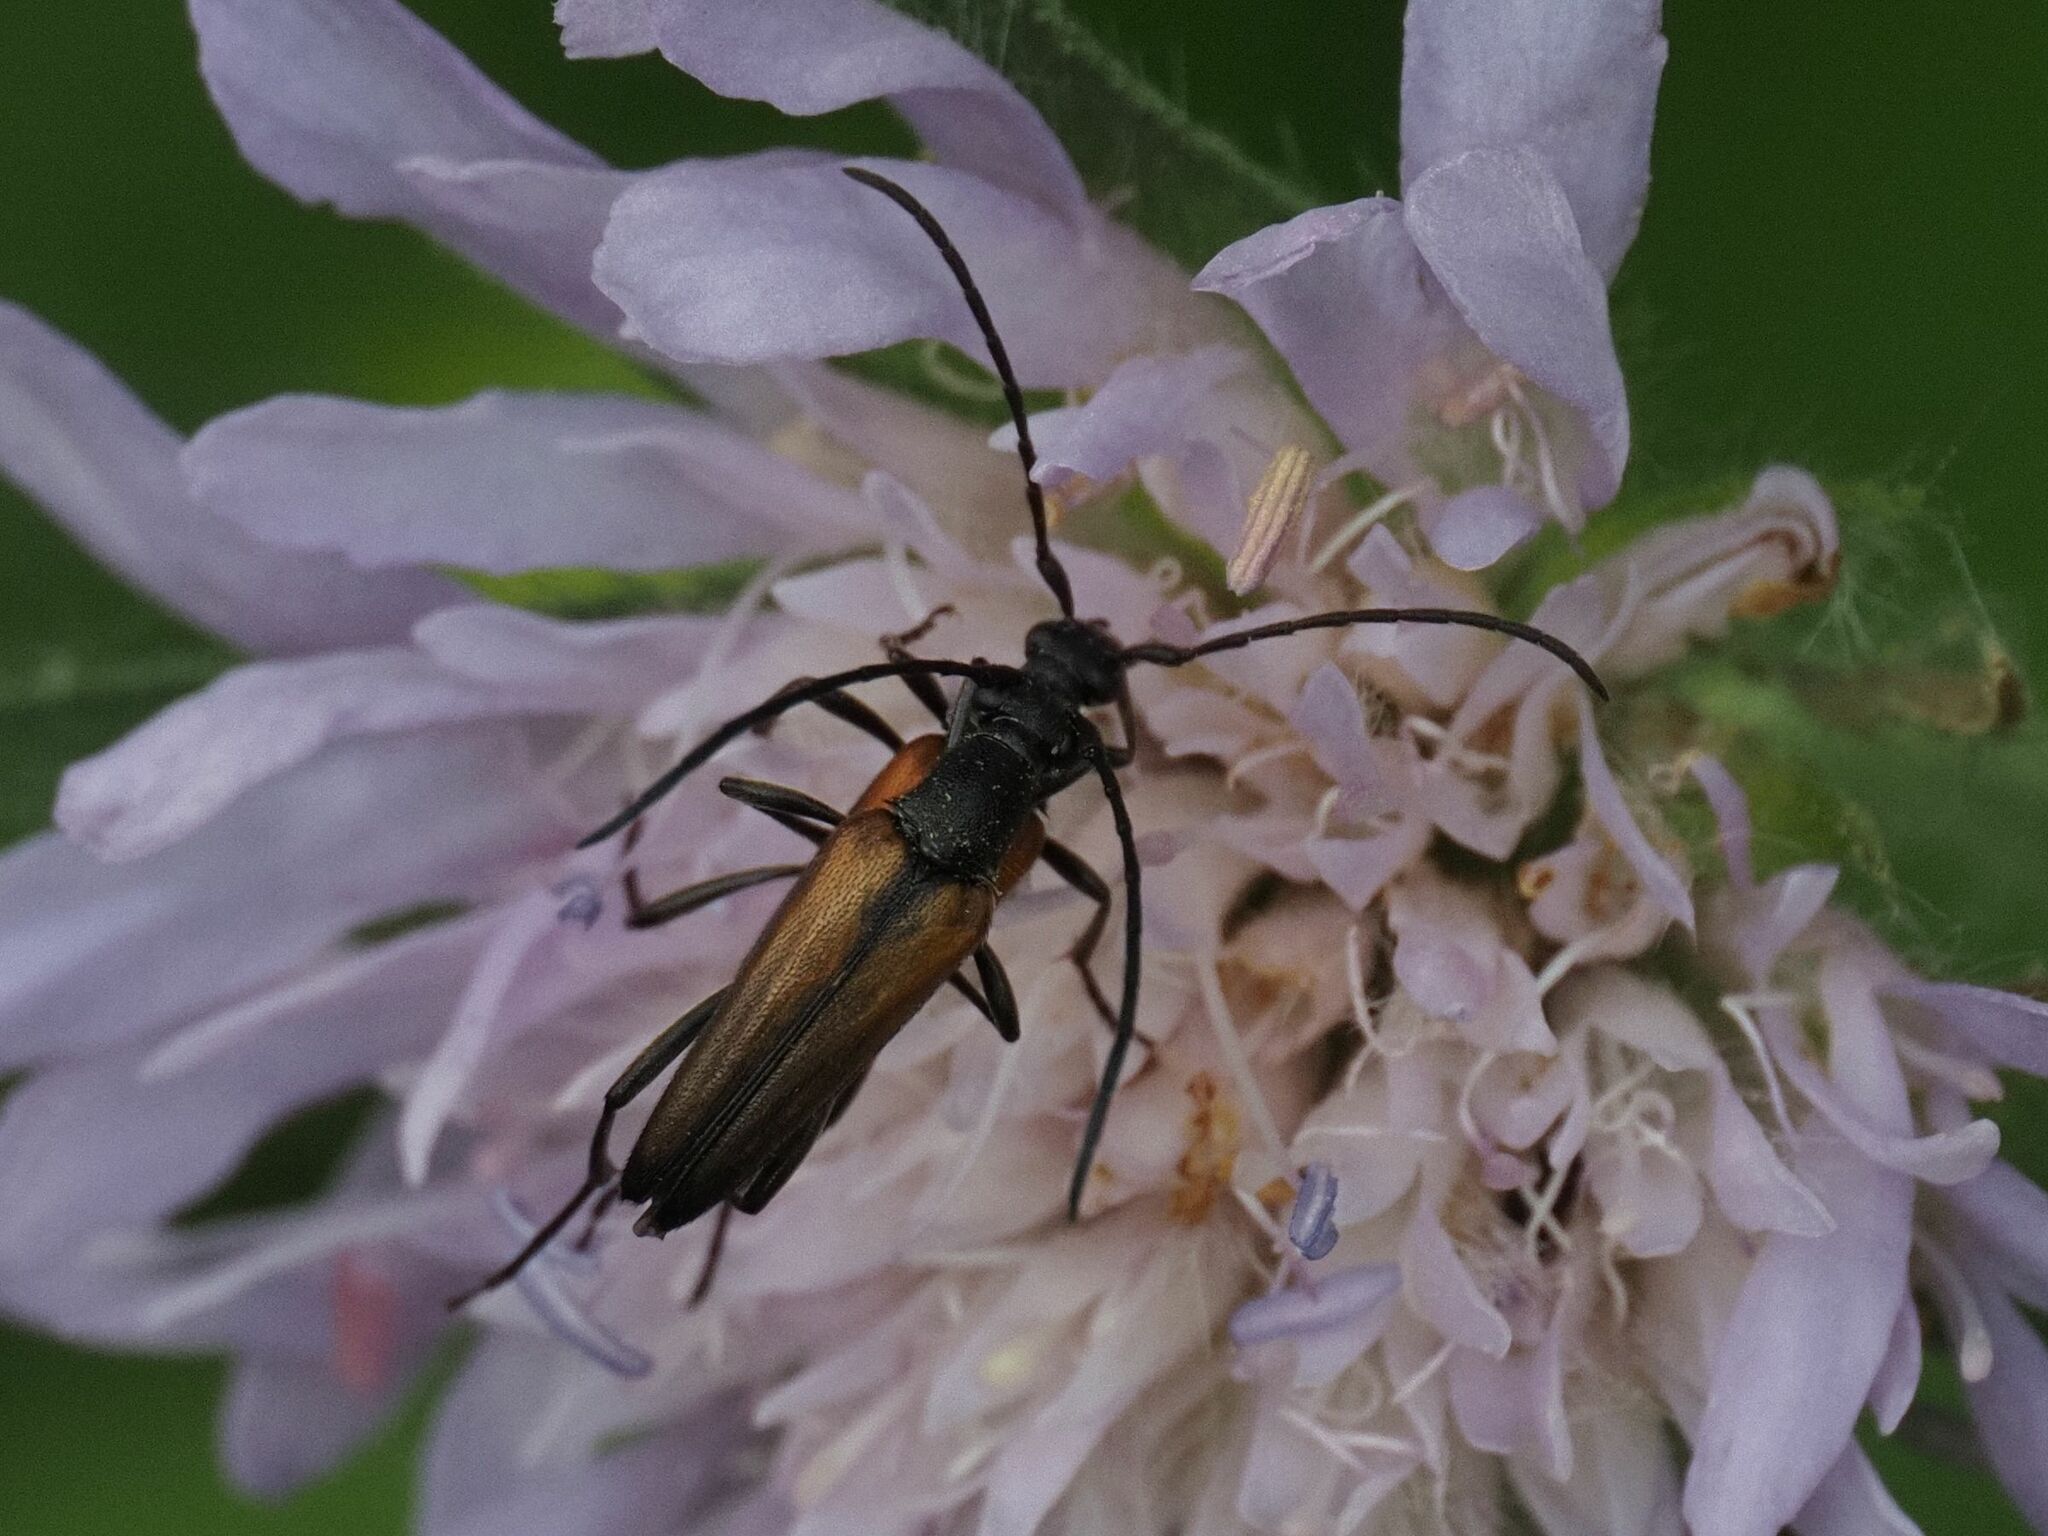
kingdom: Animalia
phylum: Arthropoda
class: Insecta
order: Coleoptera
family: Cerambycidae
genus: Stenurella
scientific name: Stenurella melanura
